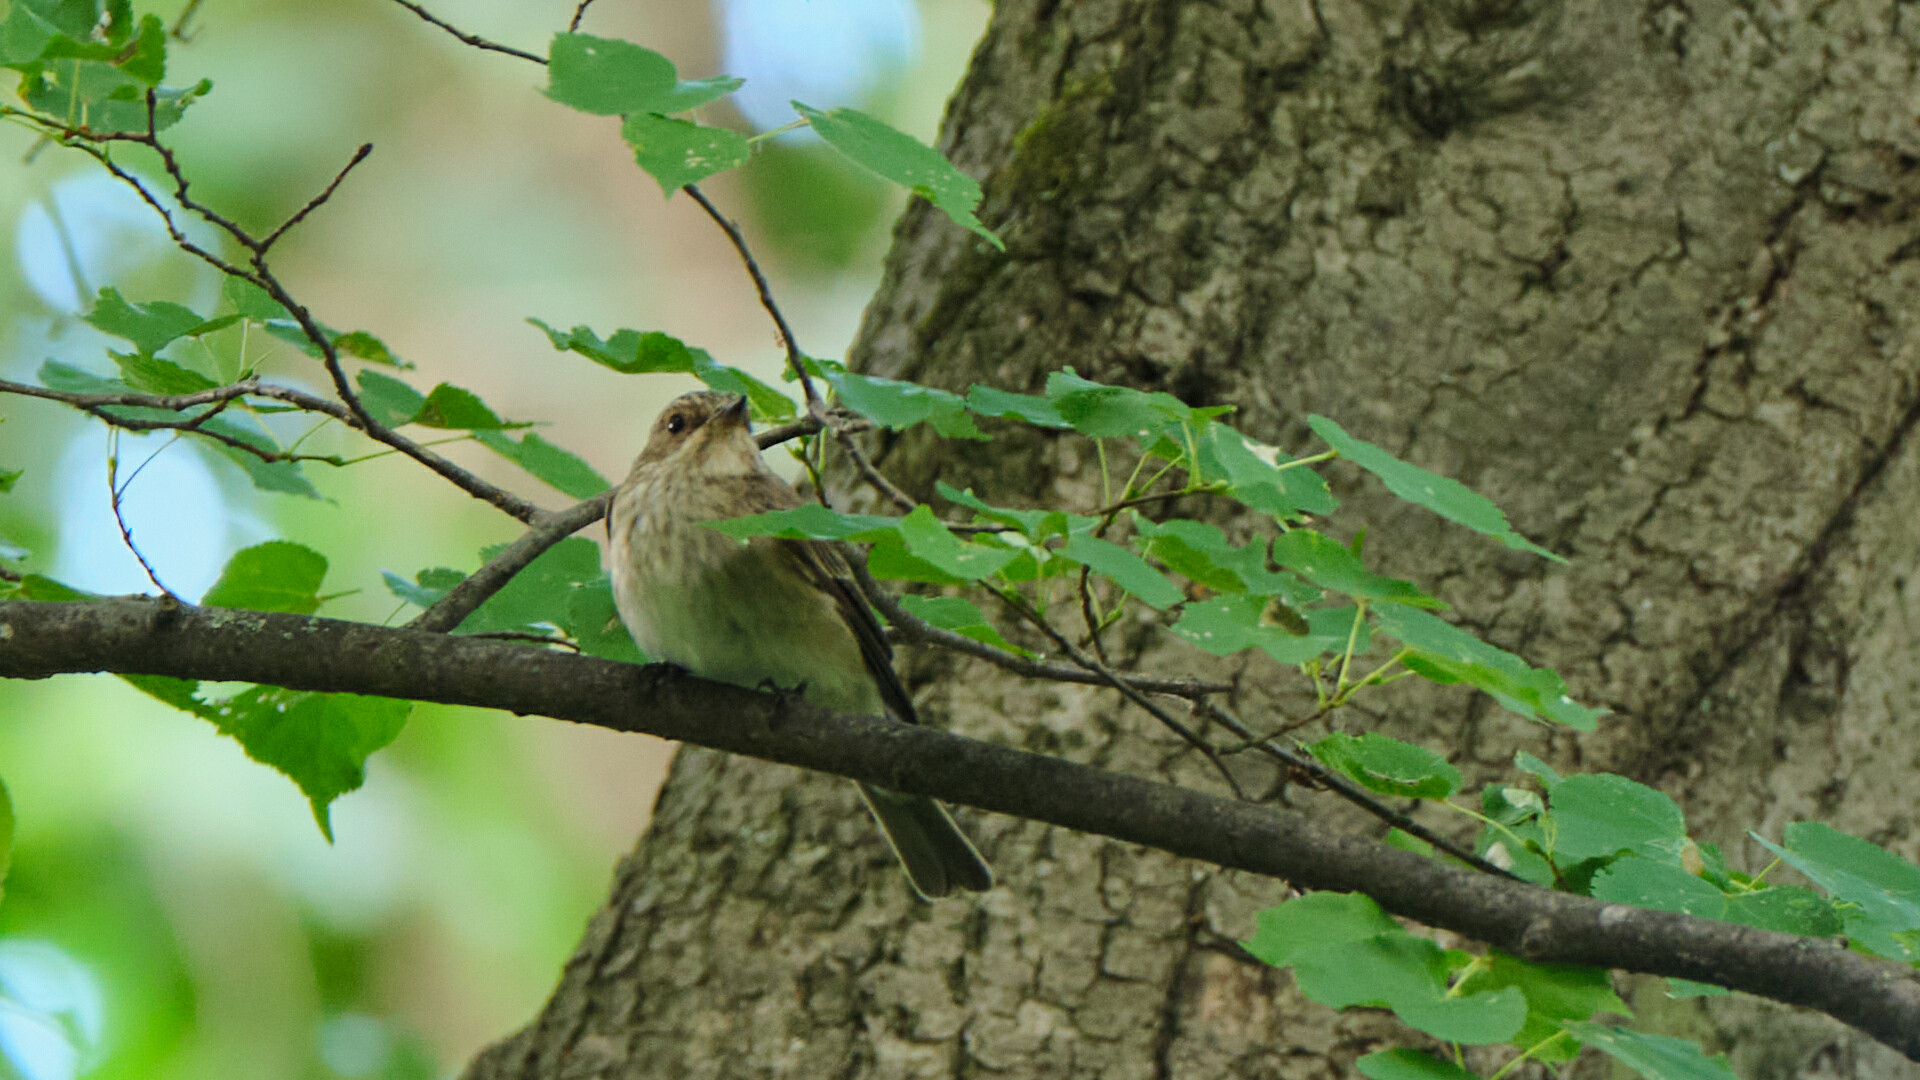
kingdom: Animalia
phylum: Chordata
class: Aves
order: Passeriformes
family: Muscicapidae
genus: Muscicapa
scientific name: Muscicapa striata
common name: Spotted flycatcher
